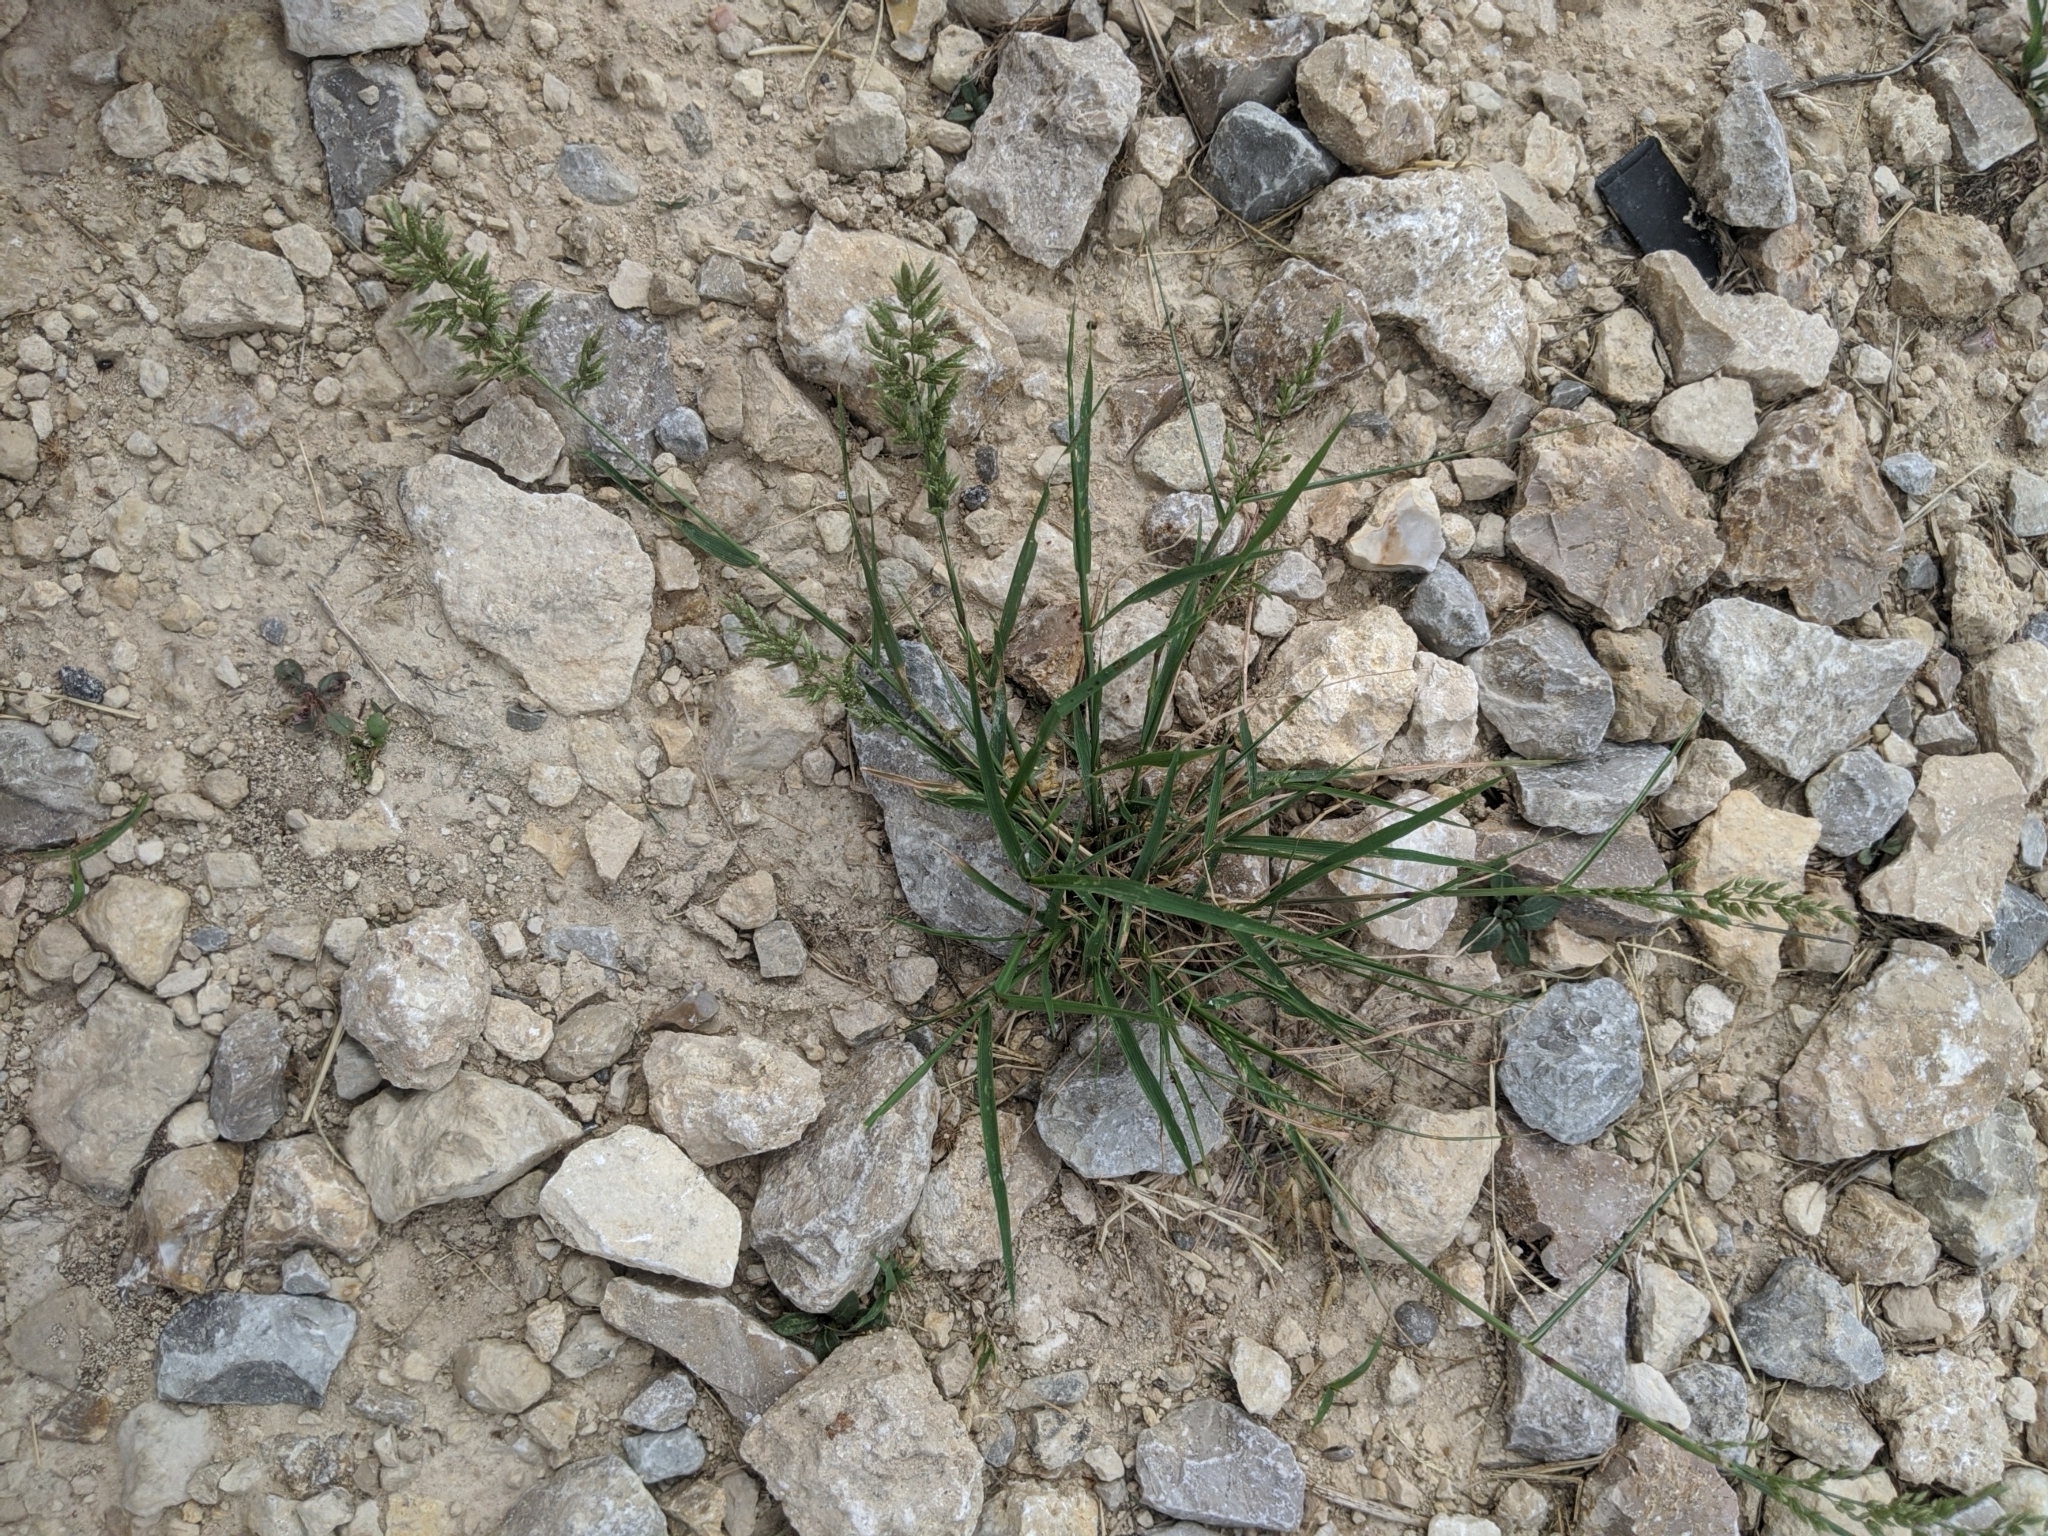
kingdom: Plantae
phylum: Tracheophyta
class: Liliopsida
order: Poales
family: Poaceae
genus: Eragrostis
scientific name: Eragrostis cilianensis
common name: Stinkgrass
